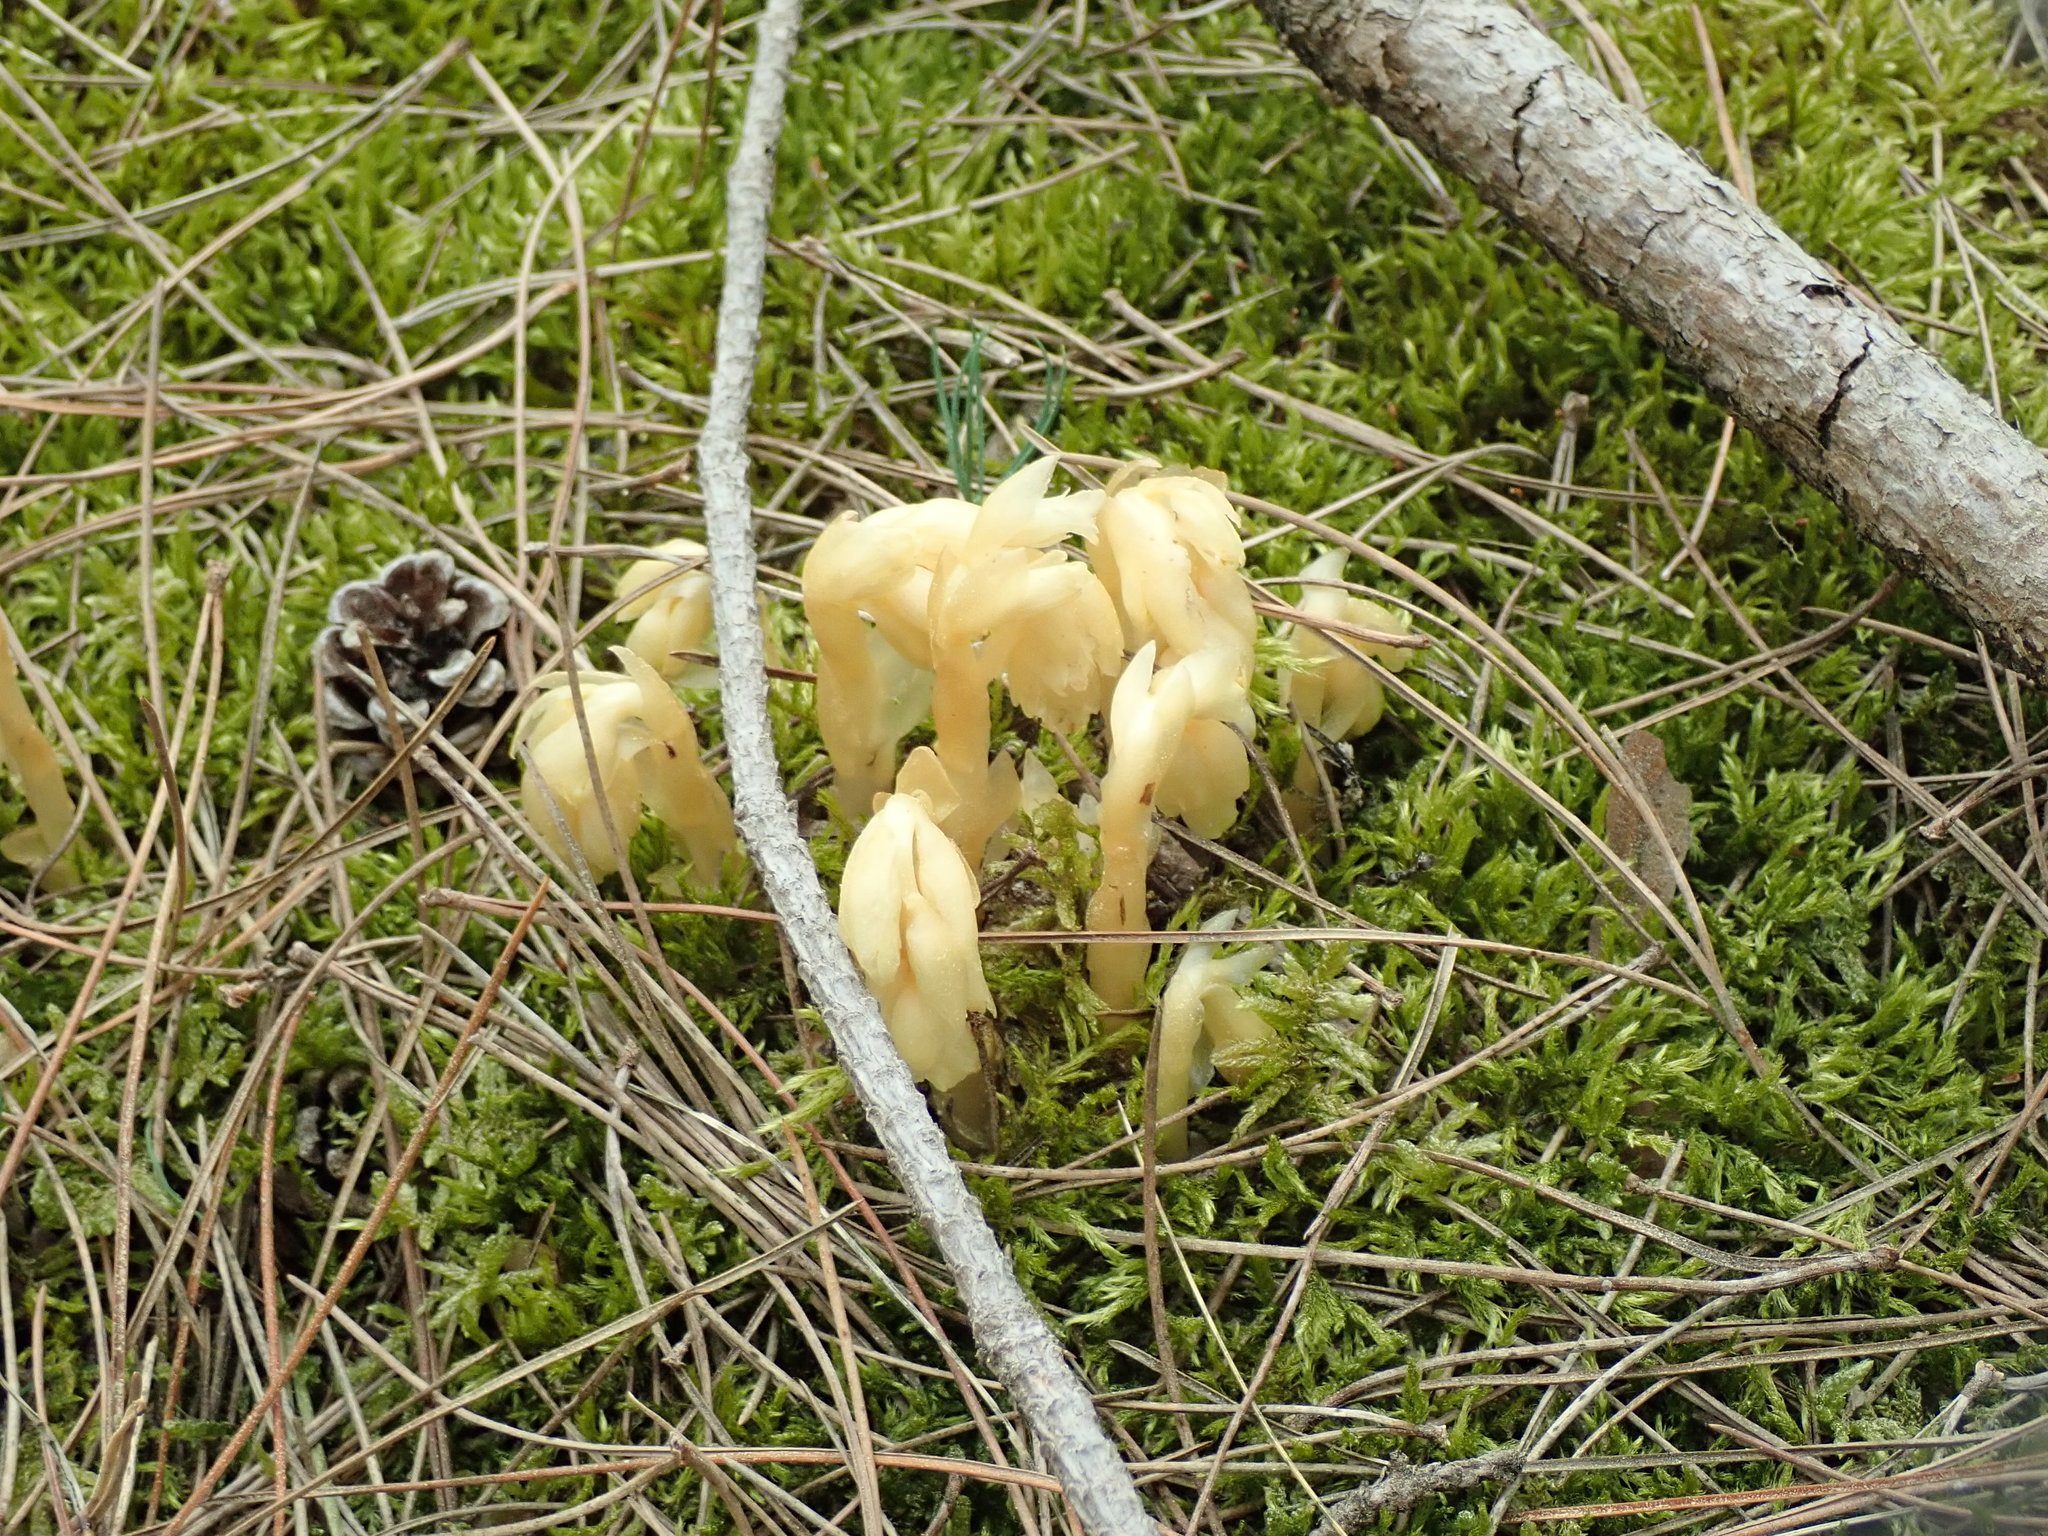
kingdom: Plantae
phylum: Tracheophyta
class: Magnoliopsida
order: Ericales
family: Ericaceae
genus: Hypopitys
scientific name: Hypopitys monotropa
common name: Yellow bird's-nest
